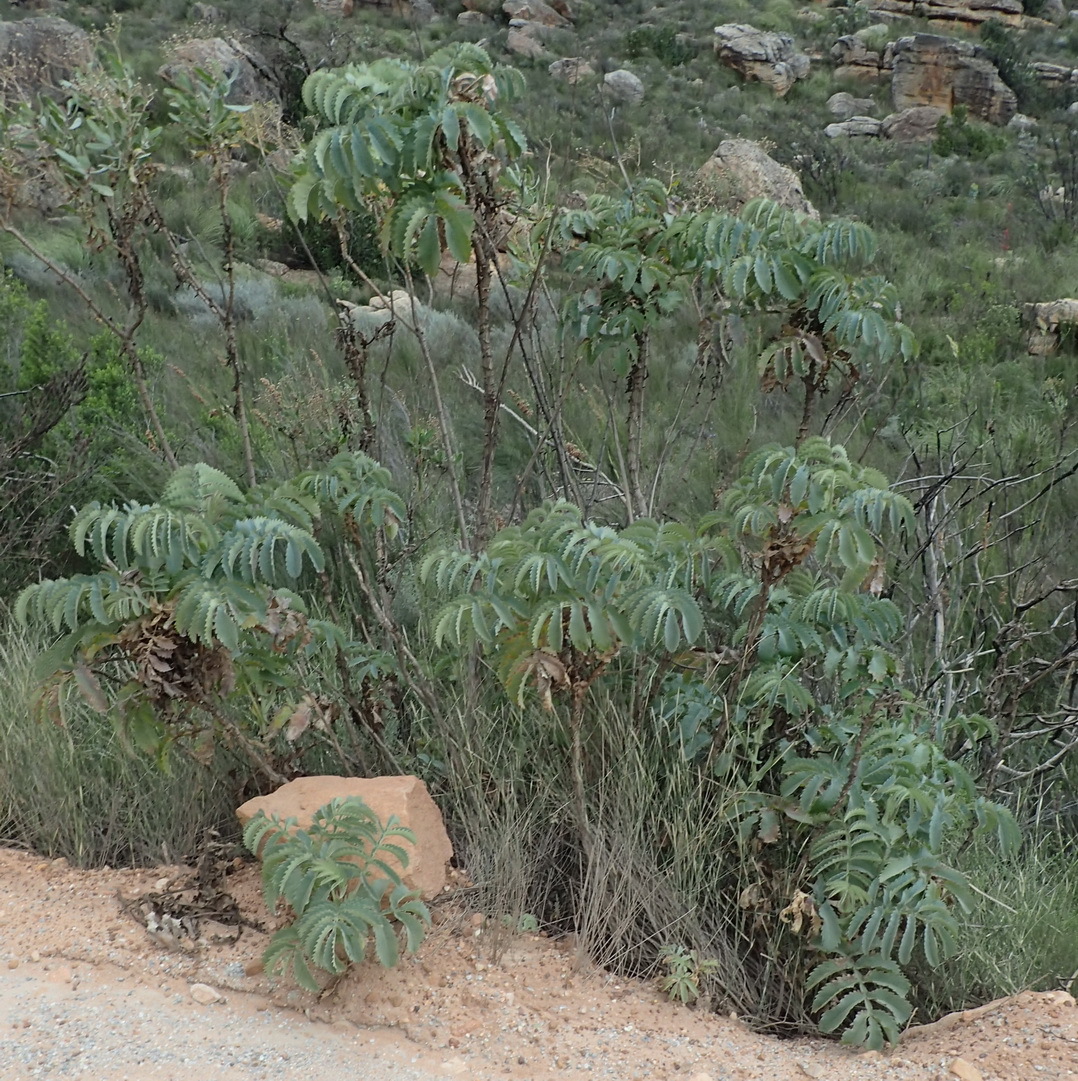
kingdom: Plantae
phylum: Tracheophyta
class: Magnoliopsida
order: Geraniales
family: Melianthaceae
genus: Melianthus
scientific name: Melianthus major
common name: Honey-flower
